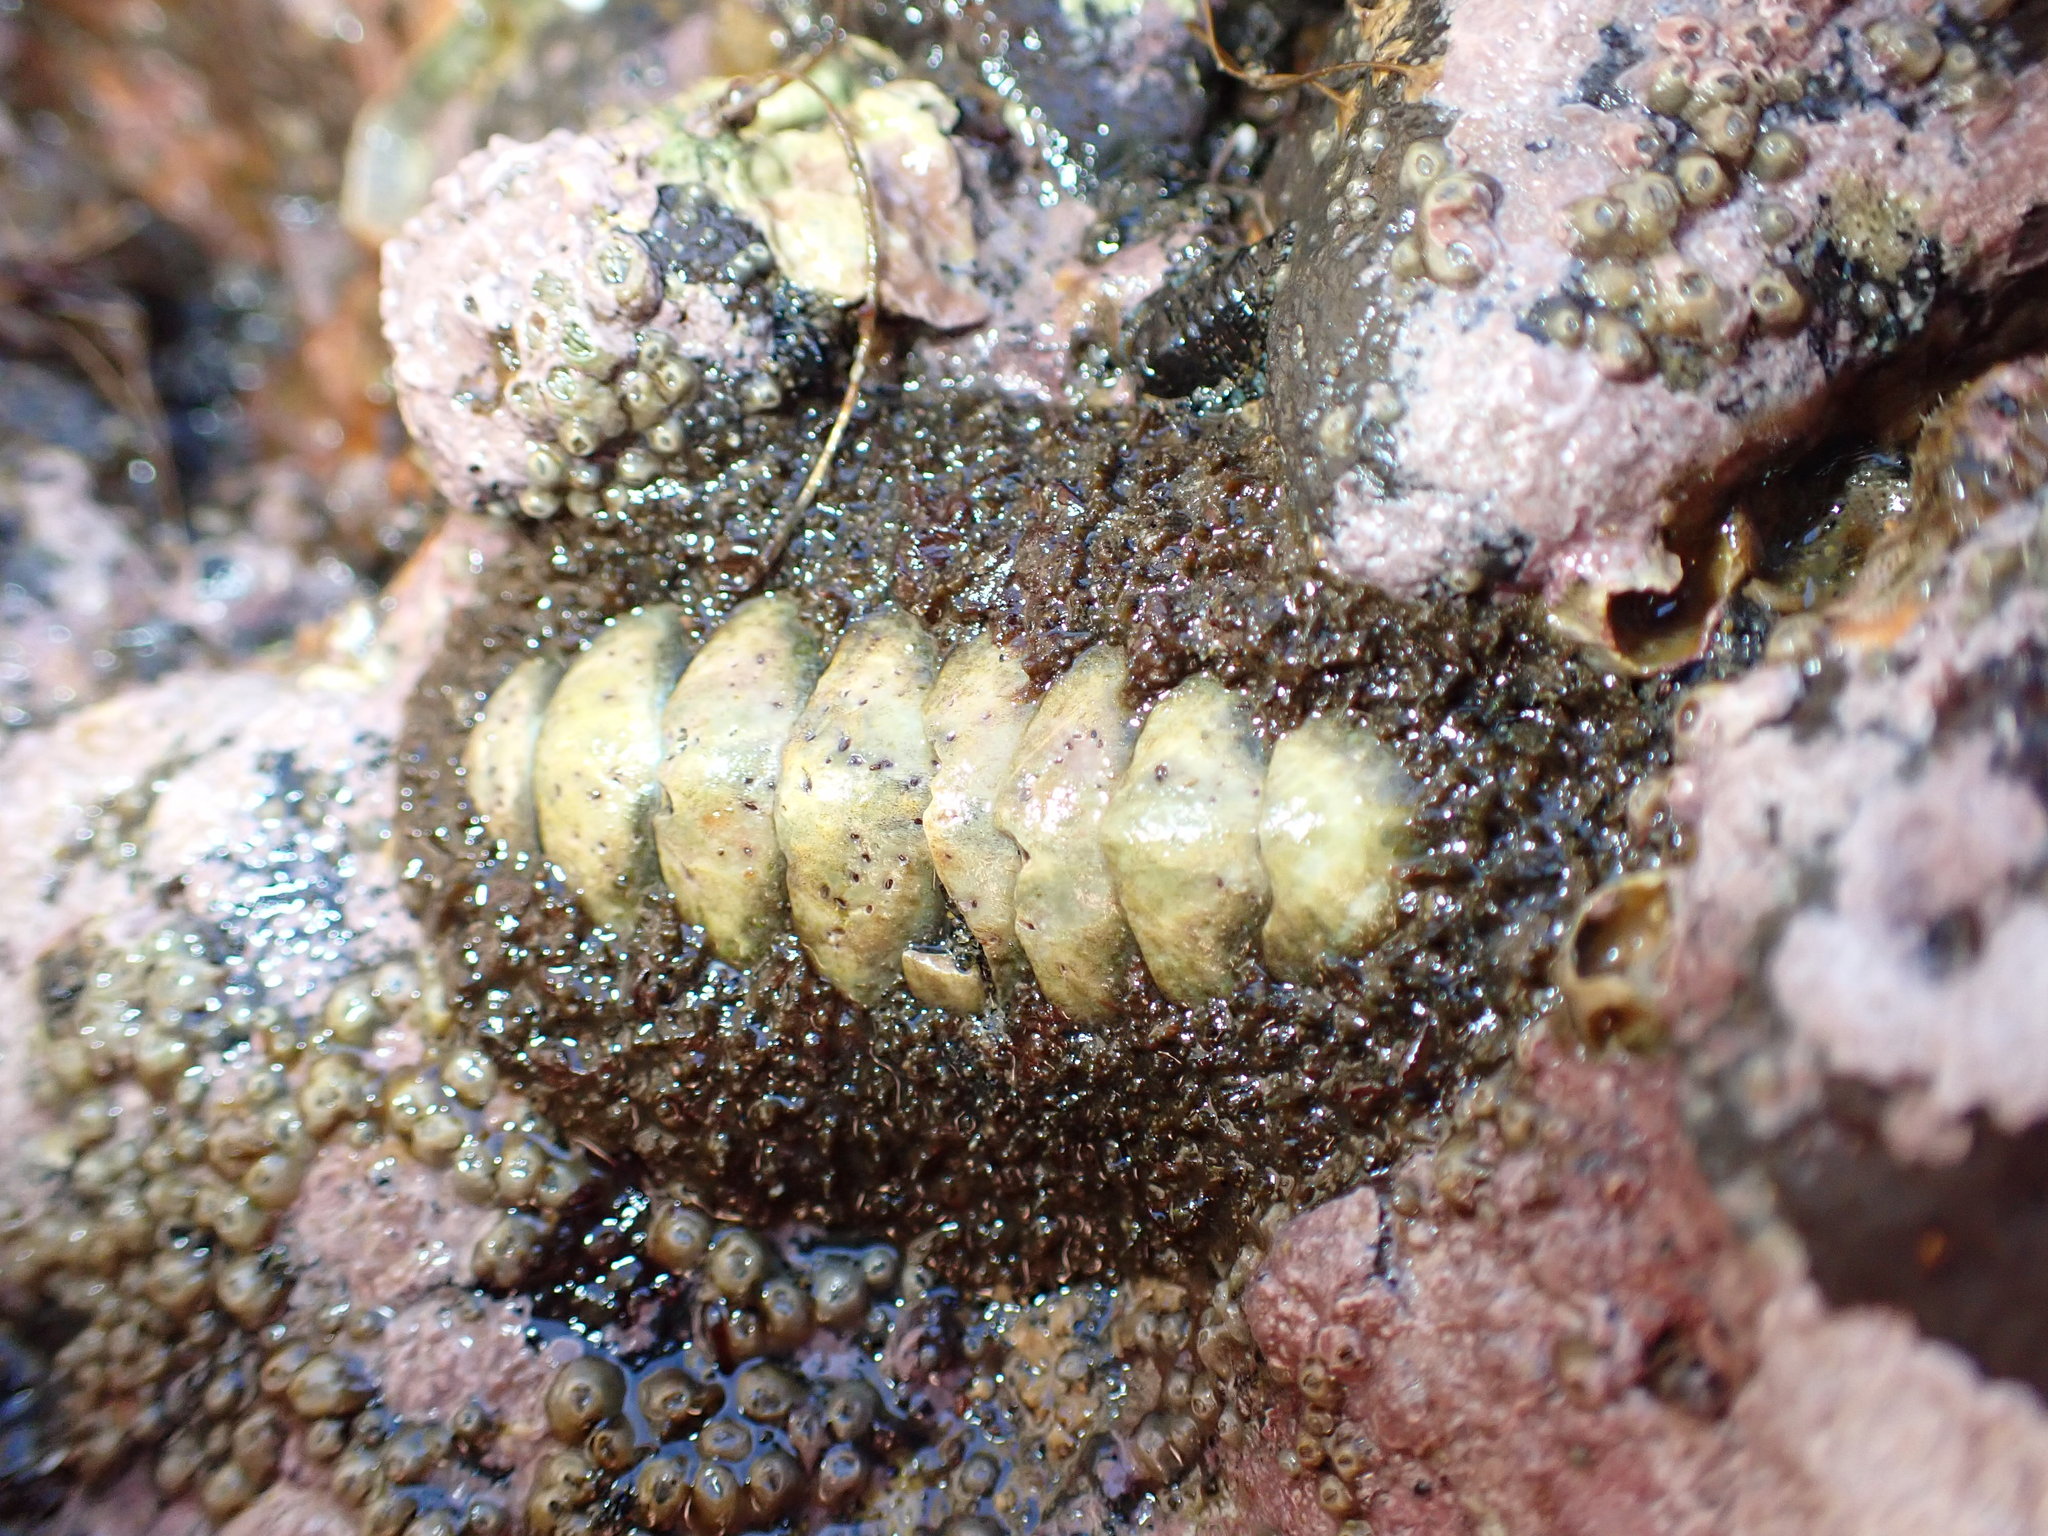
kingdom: Animalia
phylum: Mollusca
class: Polyplacophora
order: Chitonida
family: Mopaliidae
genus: Plaxiphora
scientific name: Plaxiphora obtecta
